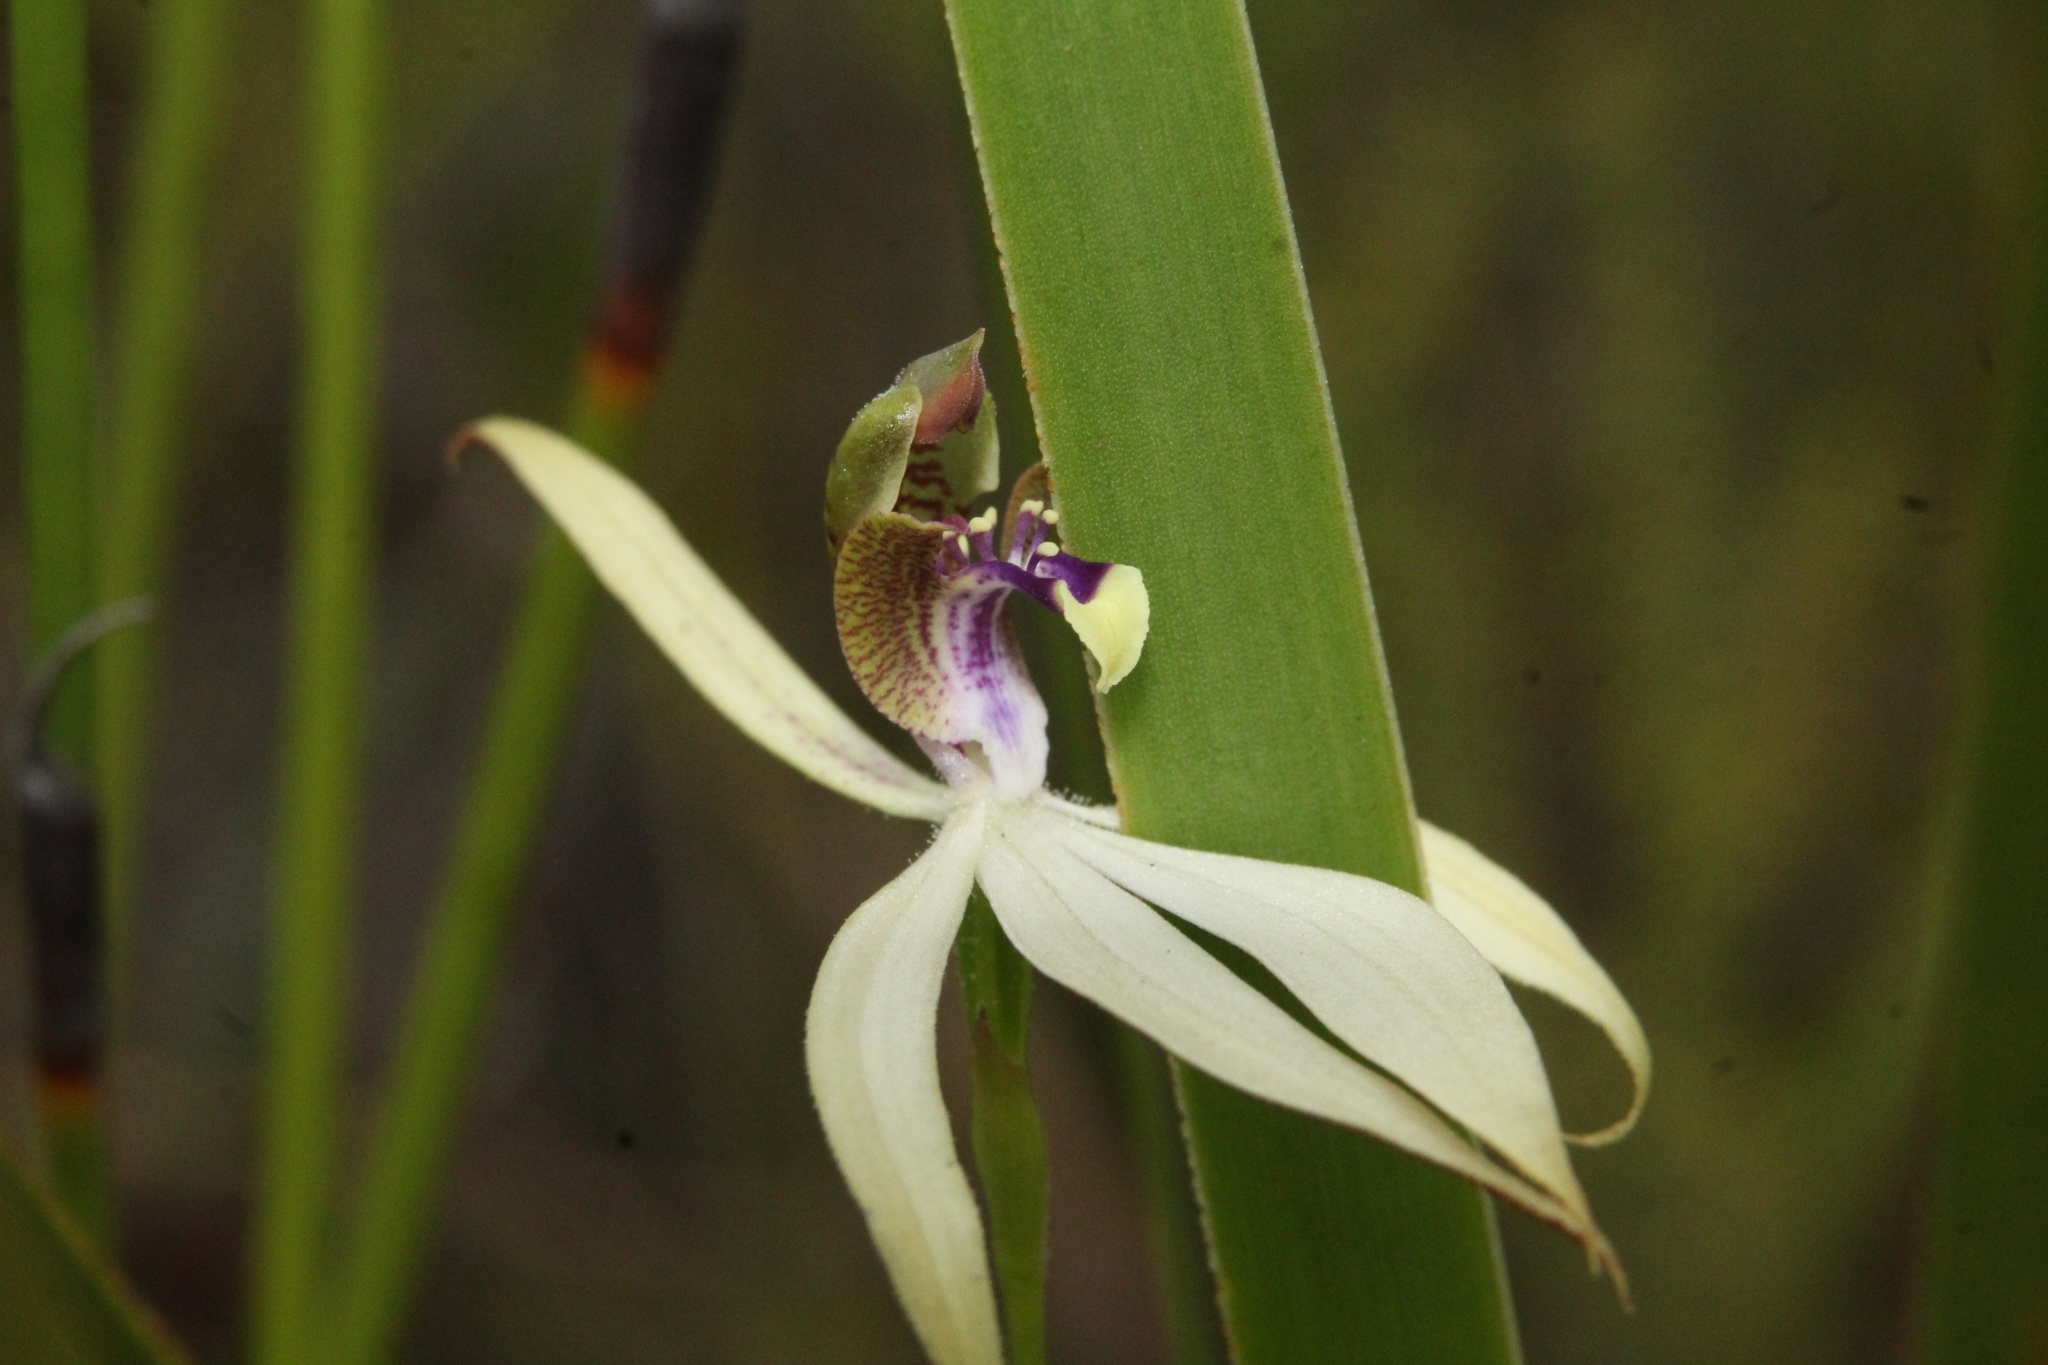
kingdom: Plantae
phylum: Tracheophyta
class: Liliopsida
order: Asparagales
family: Orchidaceae
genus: Praecoxanthus
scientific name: Praecoxanthus aphyllus
